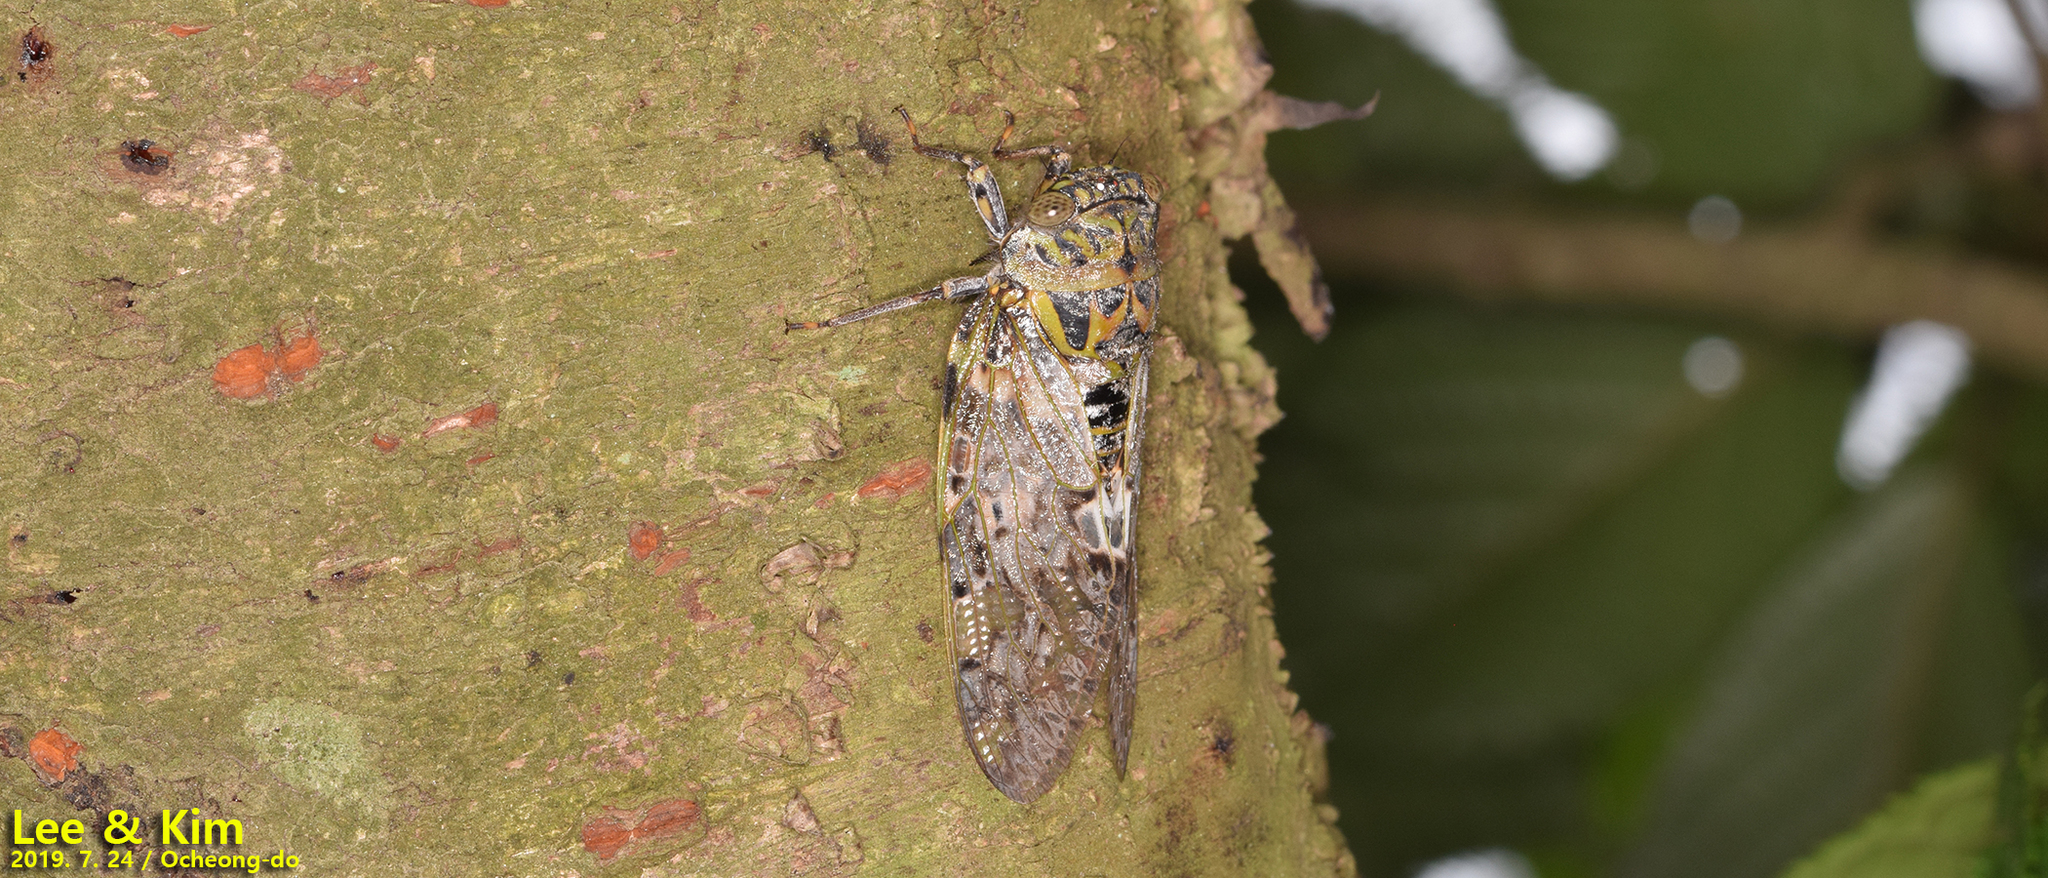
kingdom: Animalia
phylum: Arthropoda
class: Insecta
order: Hemiptera
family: Cicadidae
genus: Platypleura
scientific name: Platypleura kaempferi
